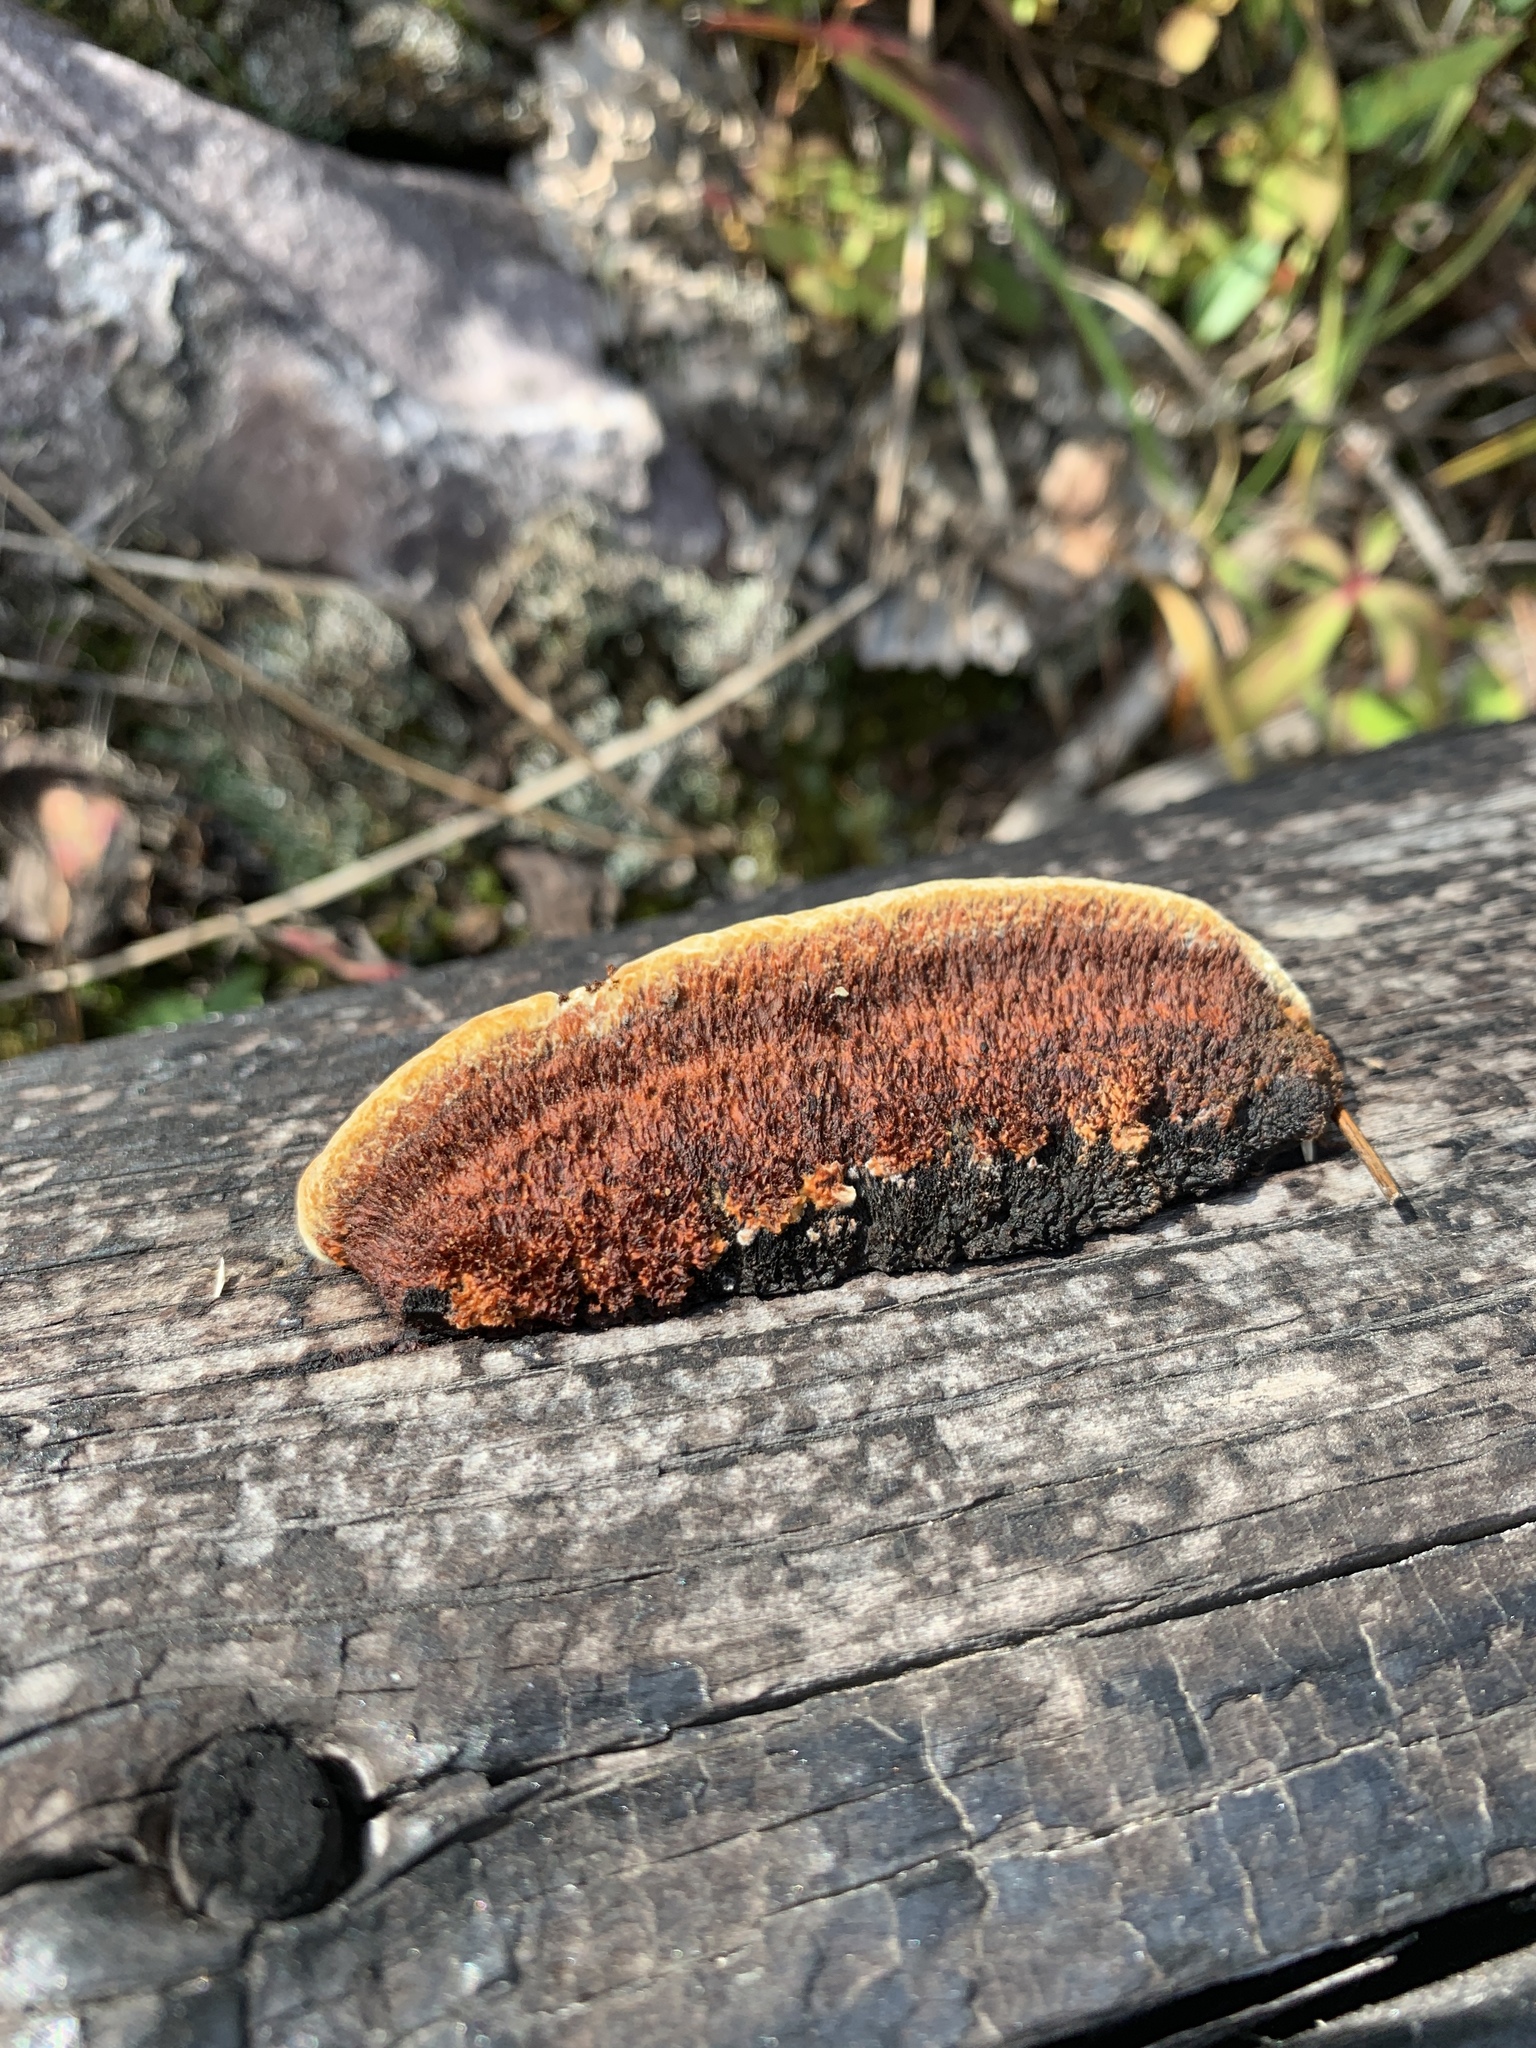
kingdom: Fungi
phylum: Basidiomycota
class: Agaricomycetes
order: Gloeophyllales
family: Gloeophyllaceae
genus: Gloeophyllum
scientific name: Gloeophyllum sepiarium
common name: Conifer mazegill
